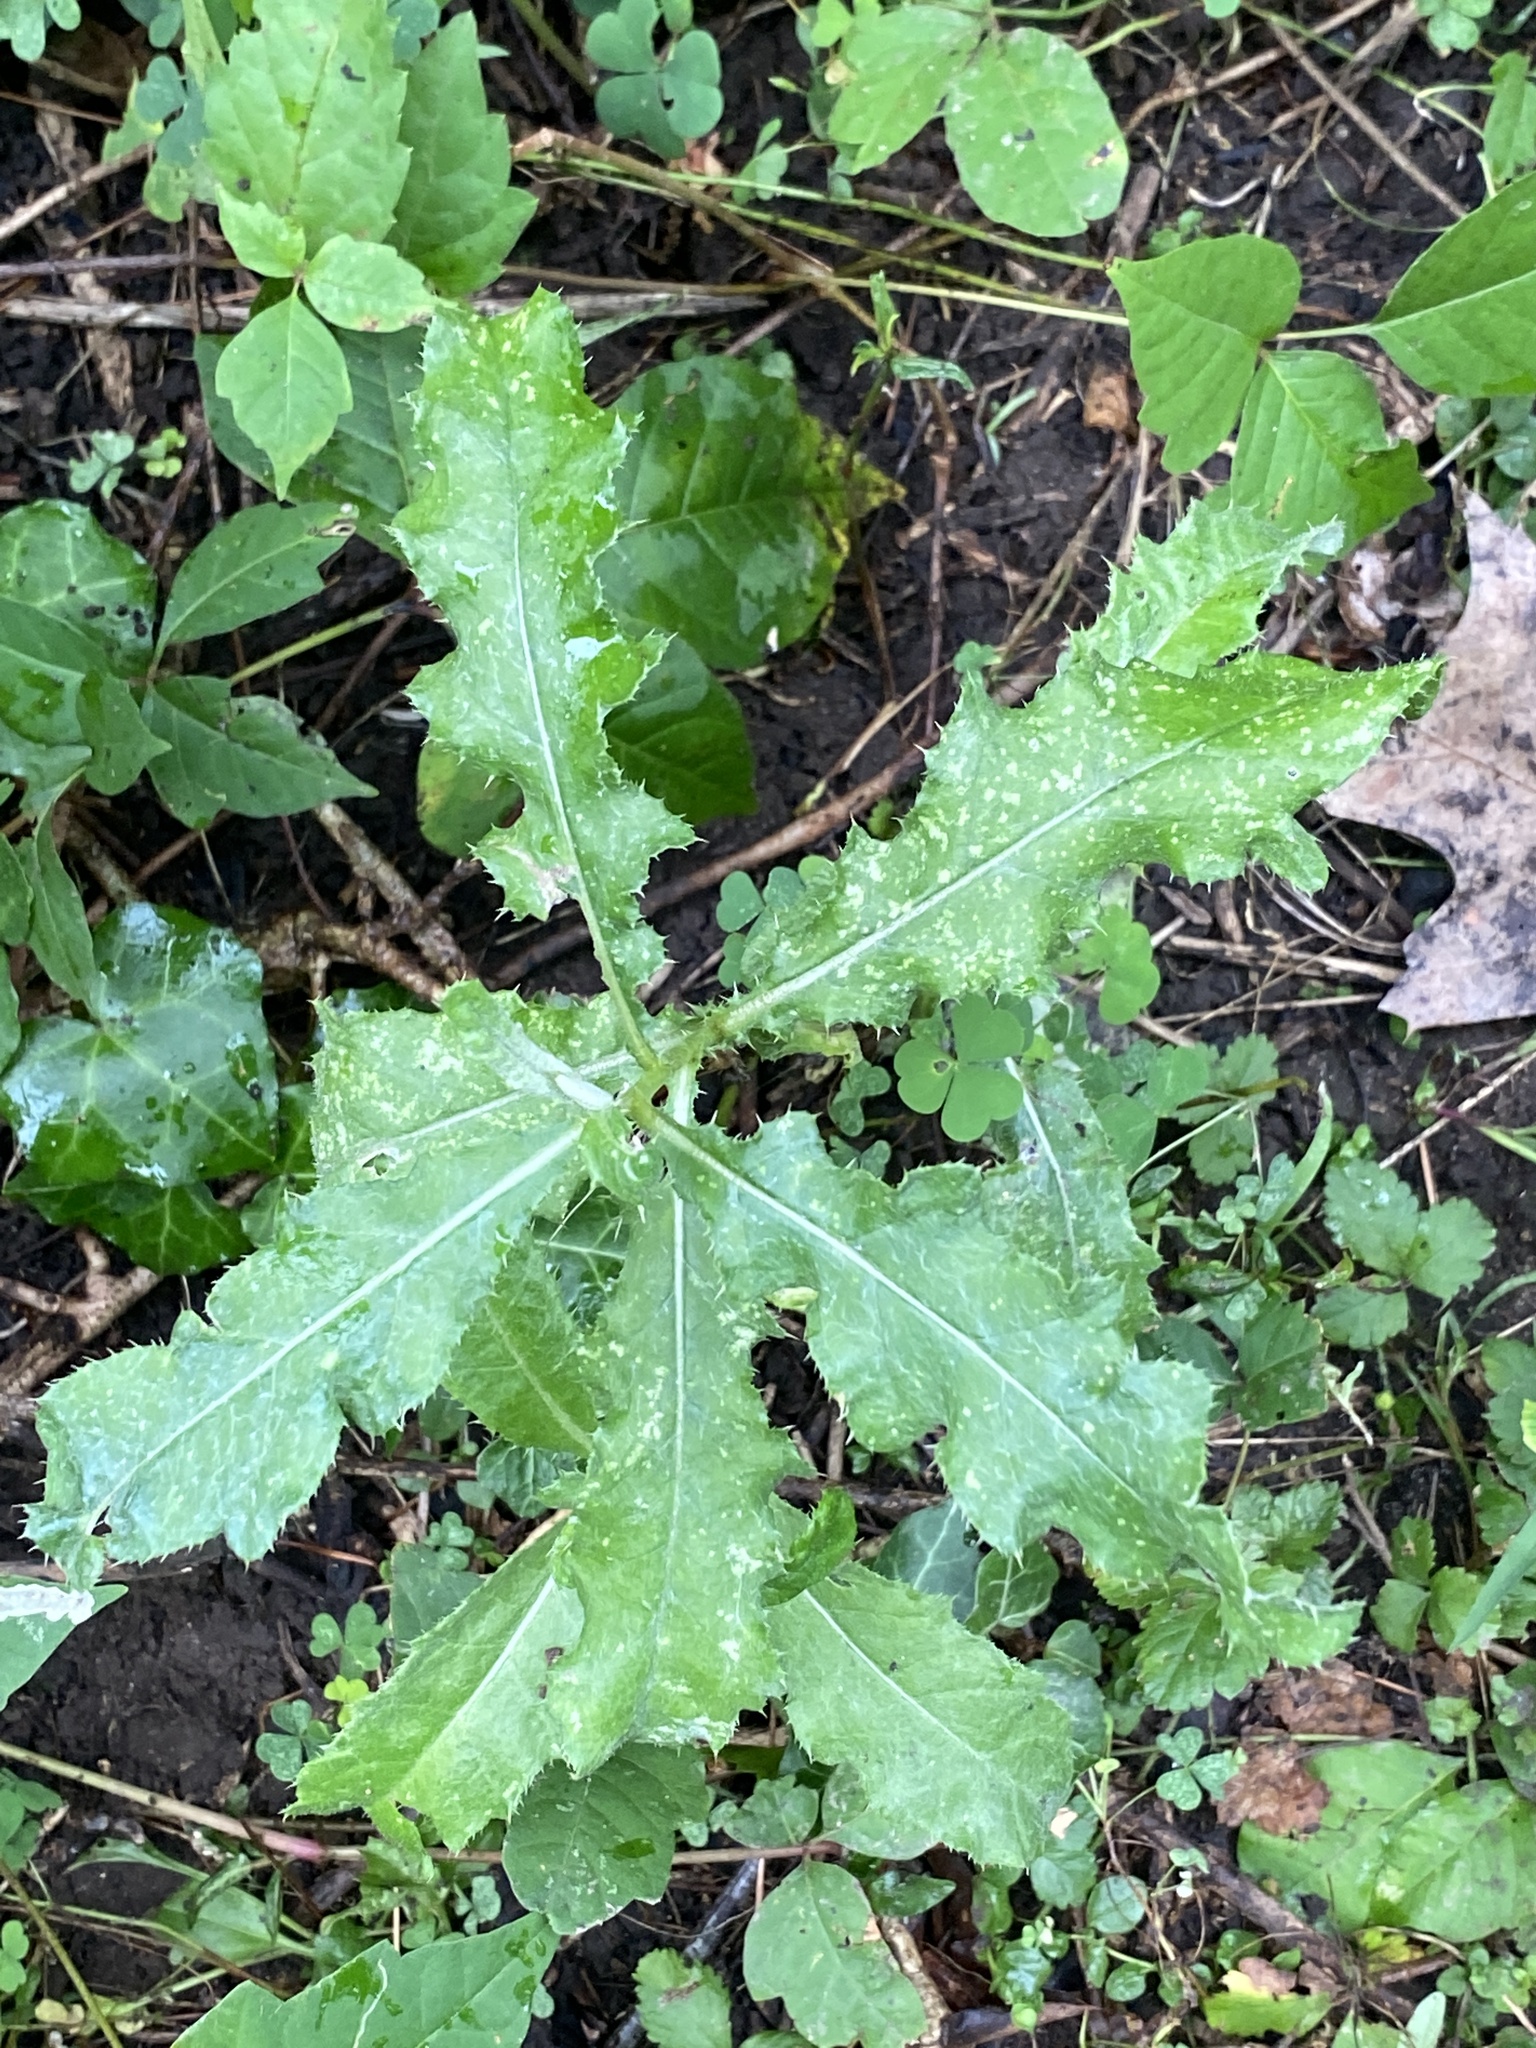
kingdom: Plantae
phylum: Tracheophyta
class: Magnoliopsida
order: Asterales
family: Asteraceae
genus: Cirsium
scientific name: Cirsium arvense
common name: Creeping thistle
